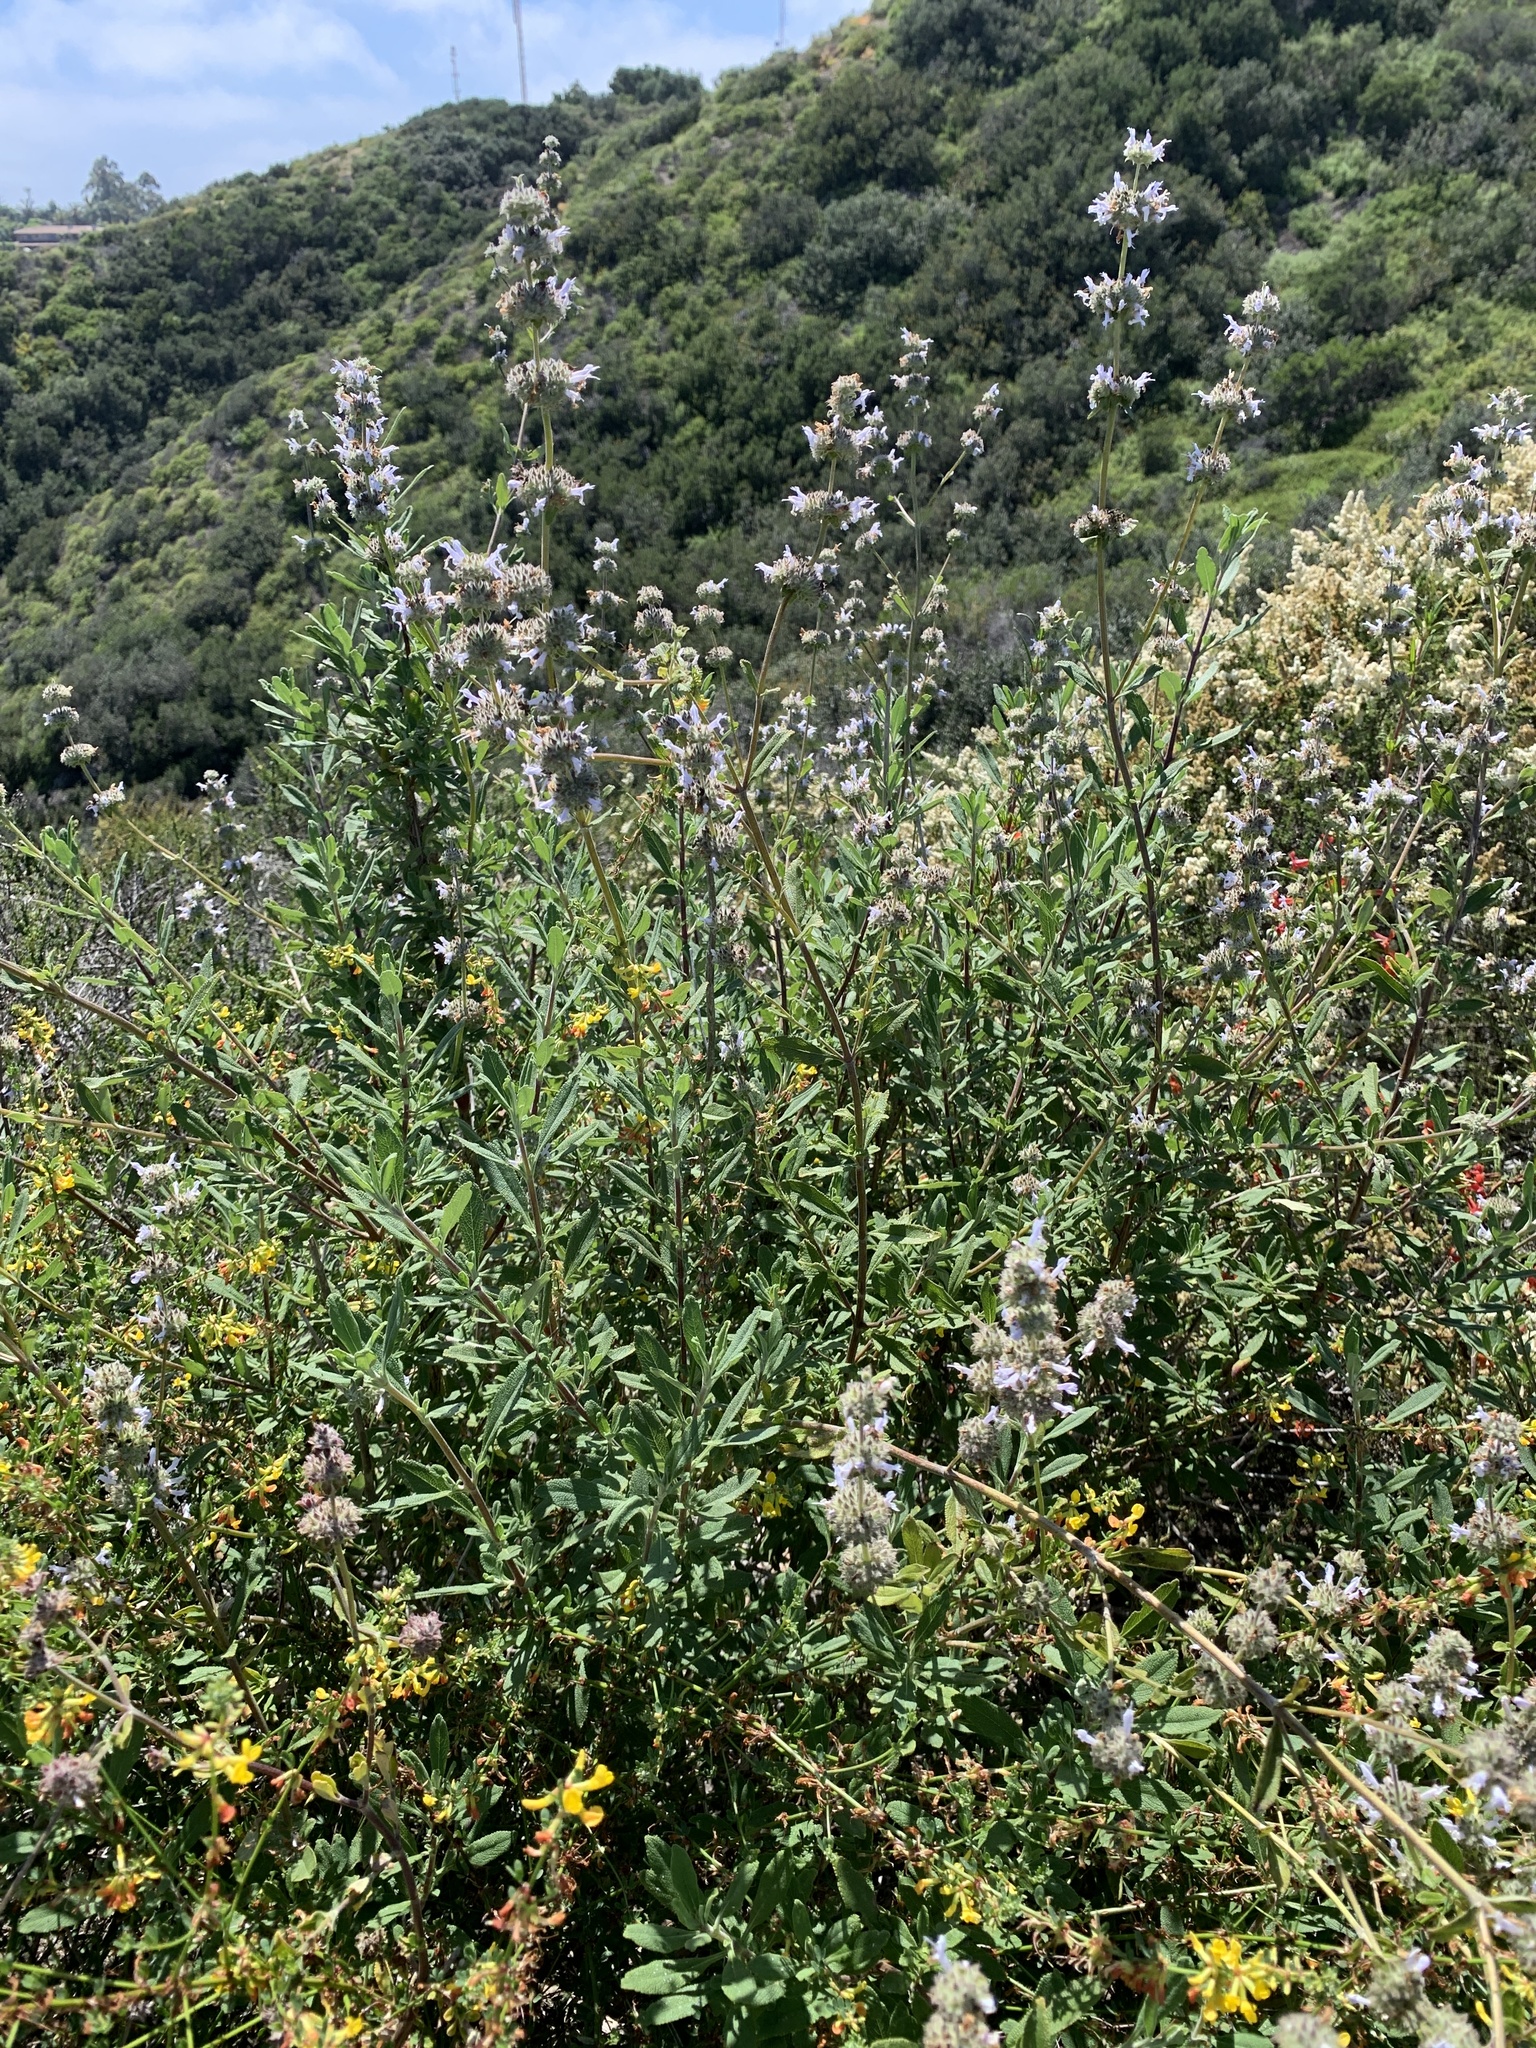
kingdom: Plantae
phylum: Tracheophyta
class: Magnoliopsida
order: Lamiales
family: Lamiaceae
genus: Salvia
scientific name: Salvia mellifera
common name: Black sage
